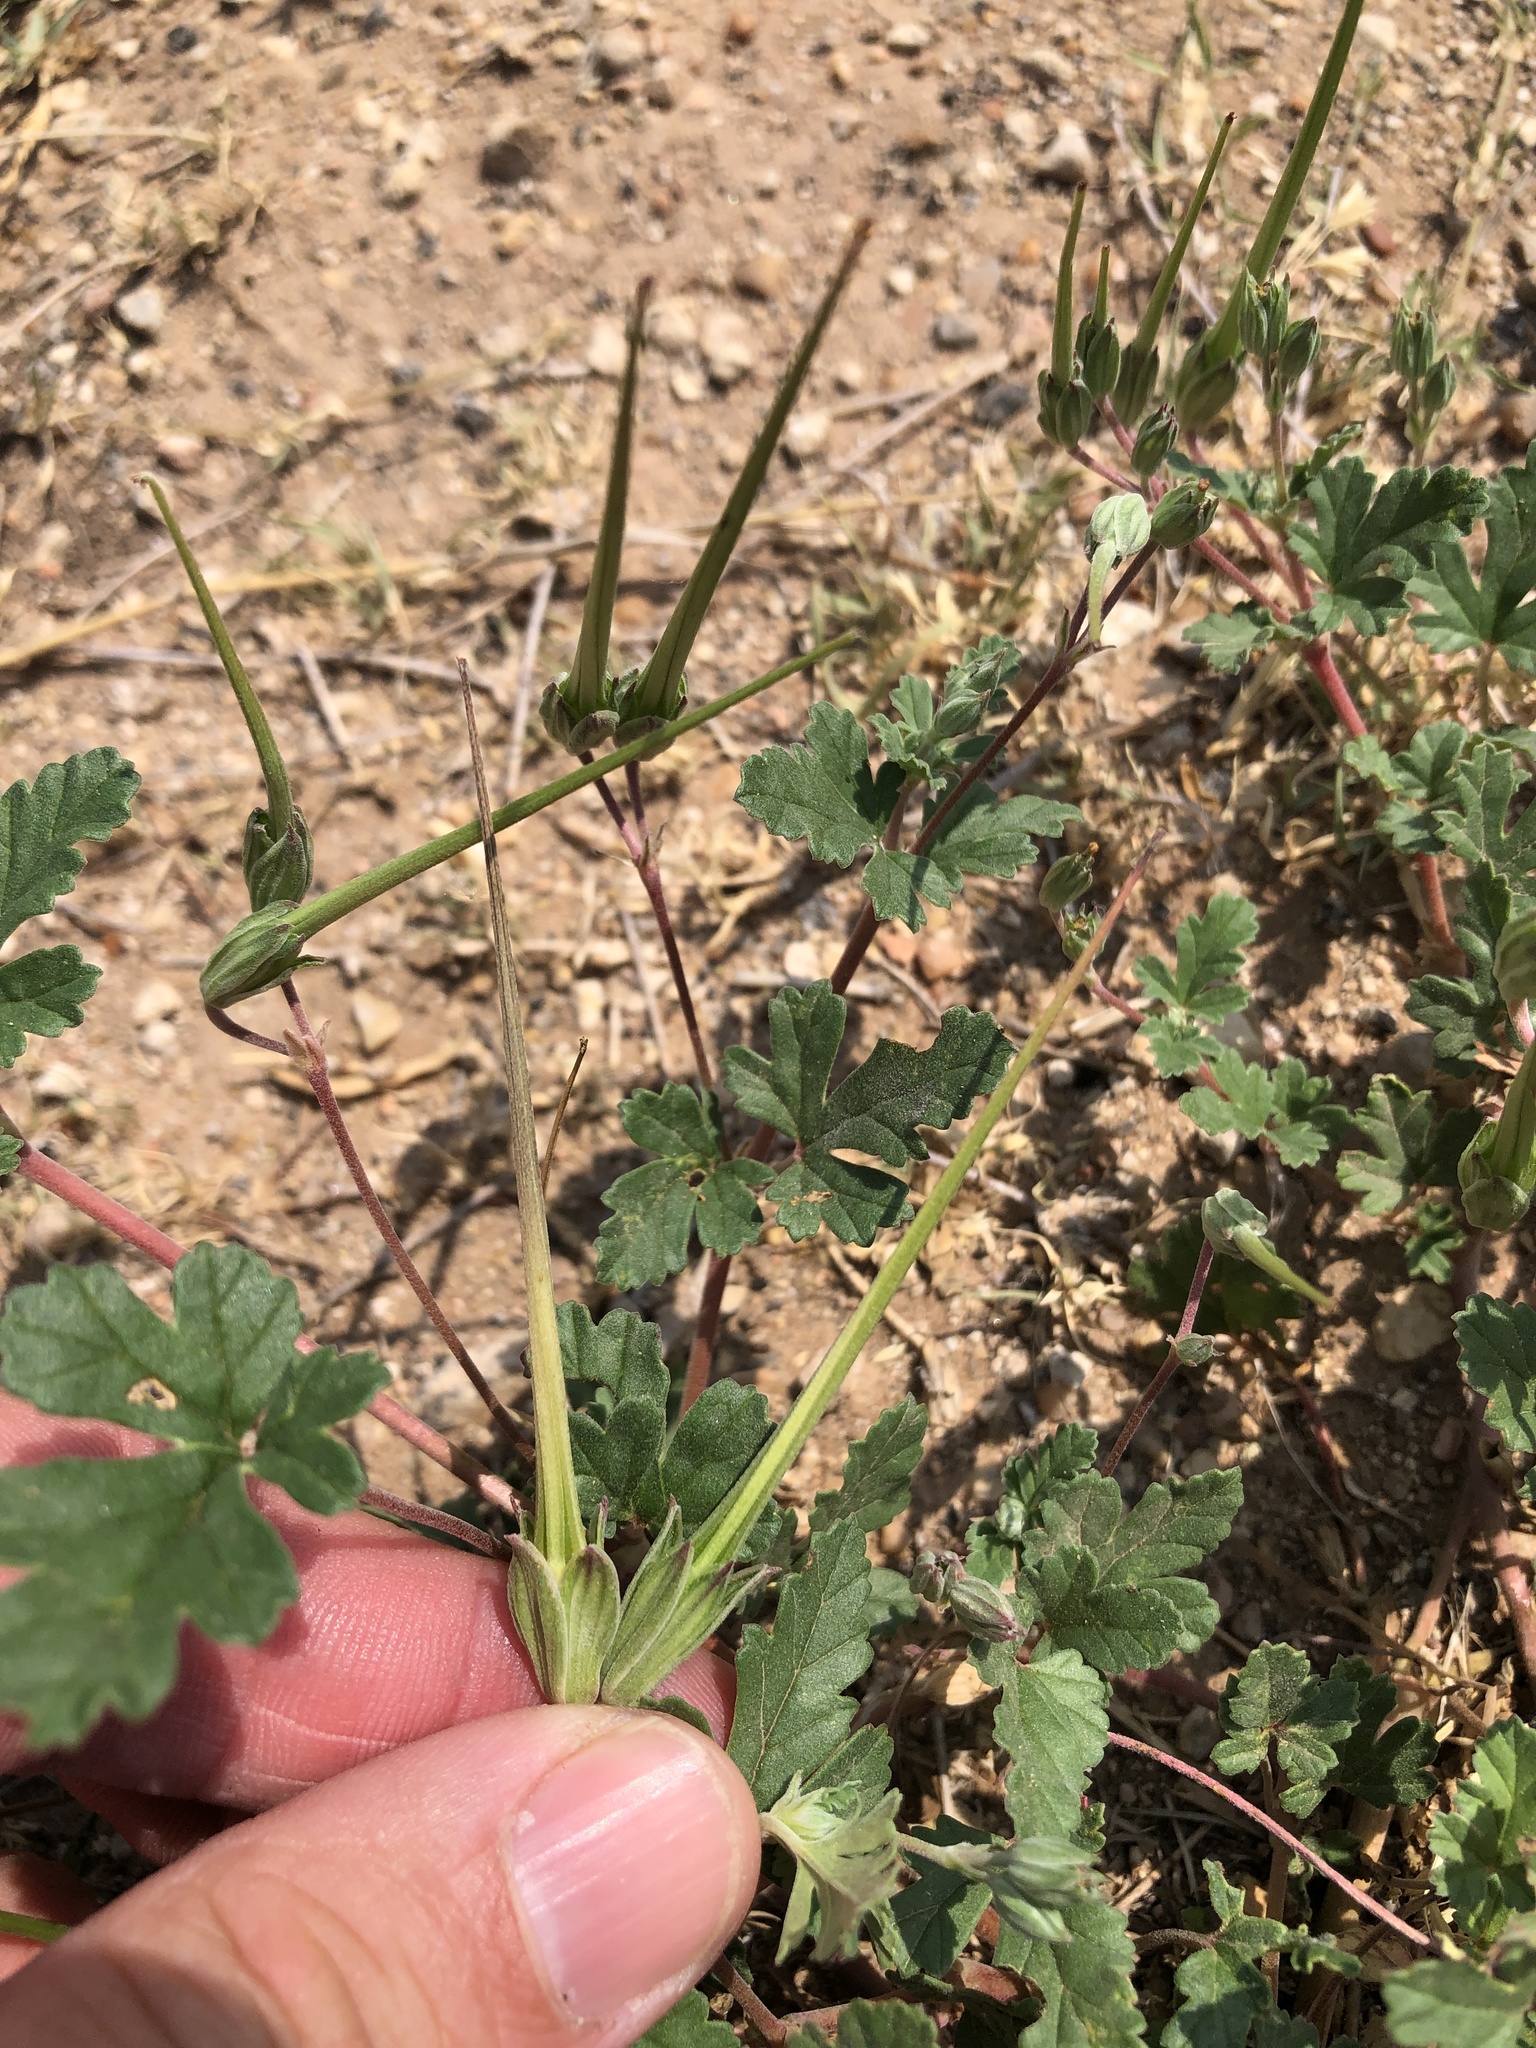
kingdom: Plantae
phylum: Tracheophyta
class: Magnoliopsida
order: Geraniales
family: Geraniaceae
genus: Erodium
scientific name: Erodium texanum
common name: Texas stork's-bill
